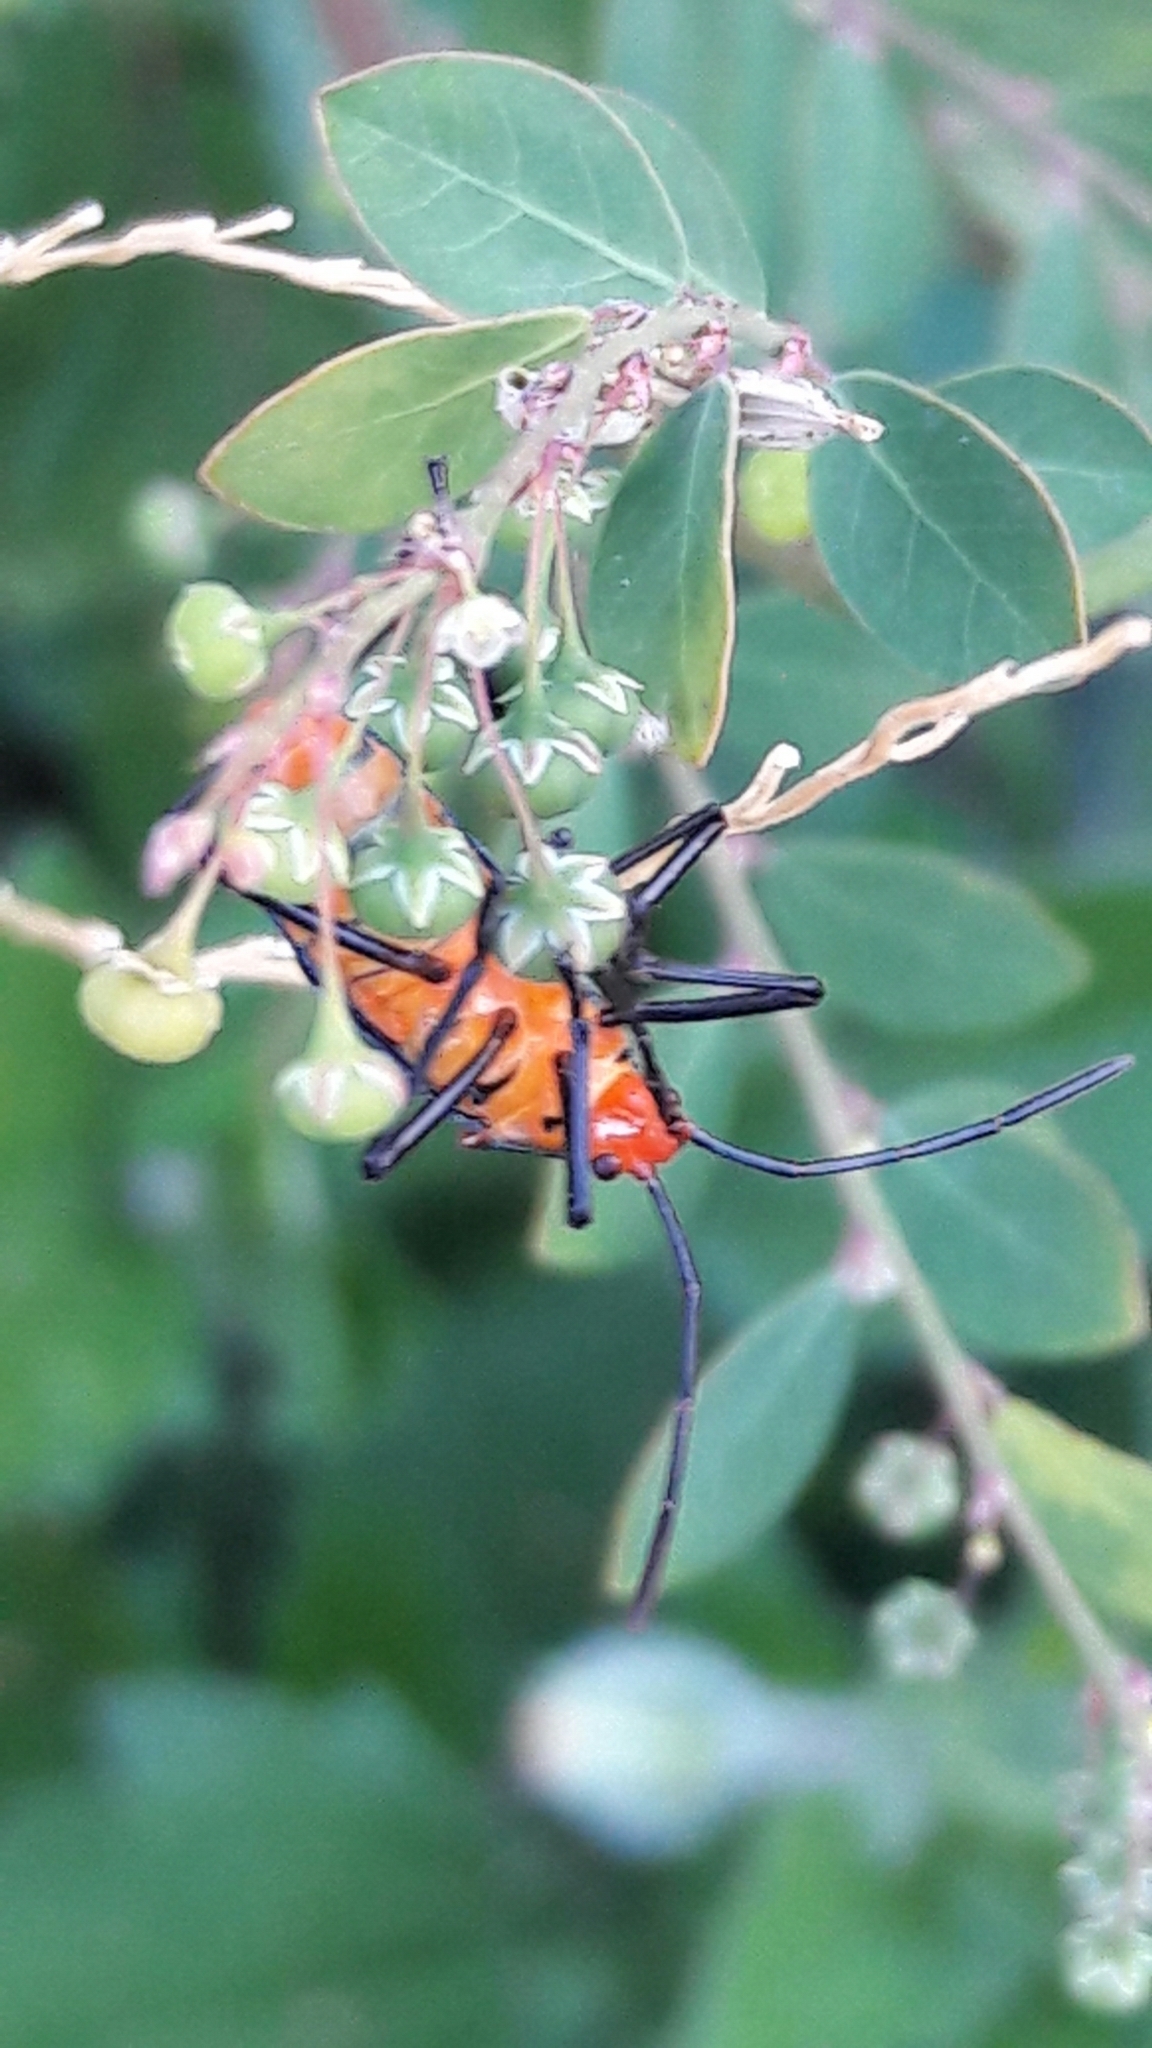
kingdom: Animalia
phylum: Arthropoda
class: Insecta
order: Hemiptera
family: Coreidae
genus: Sphictyrtus
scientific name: Sphictyrtus chrysis
